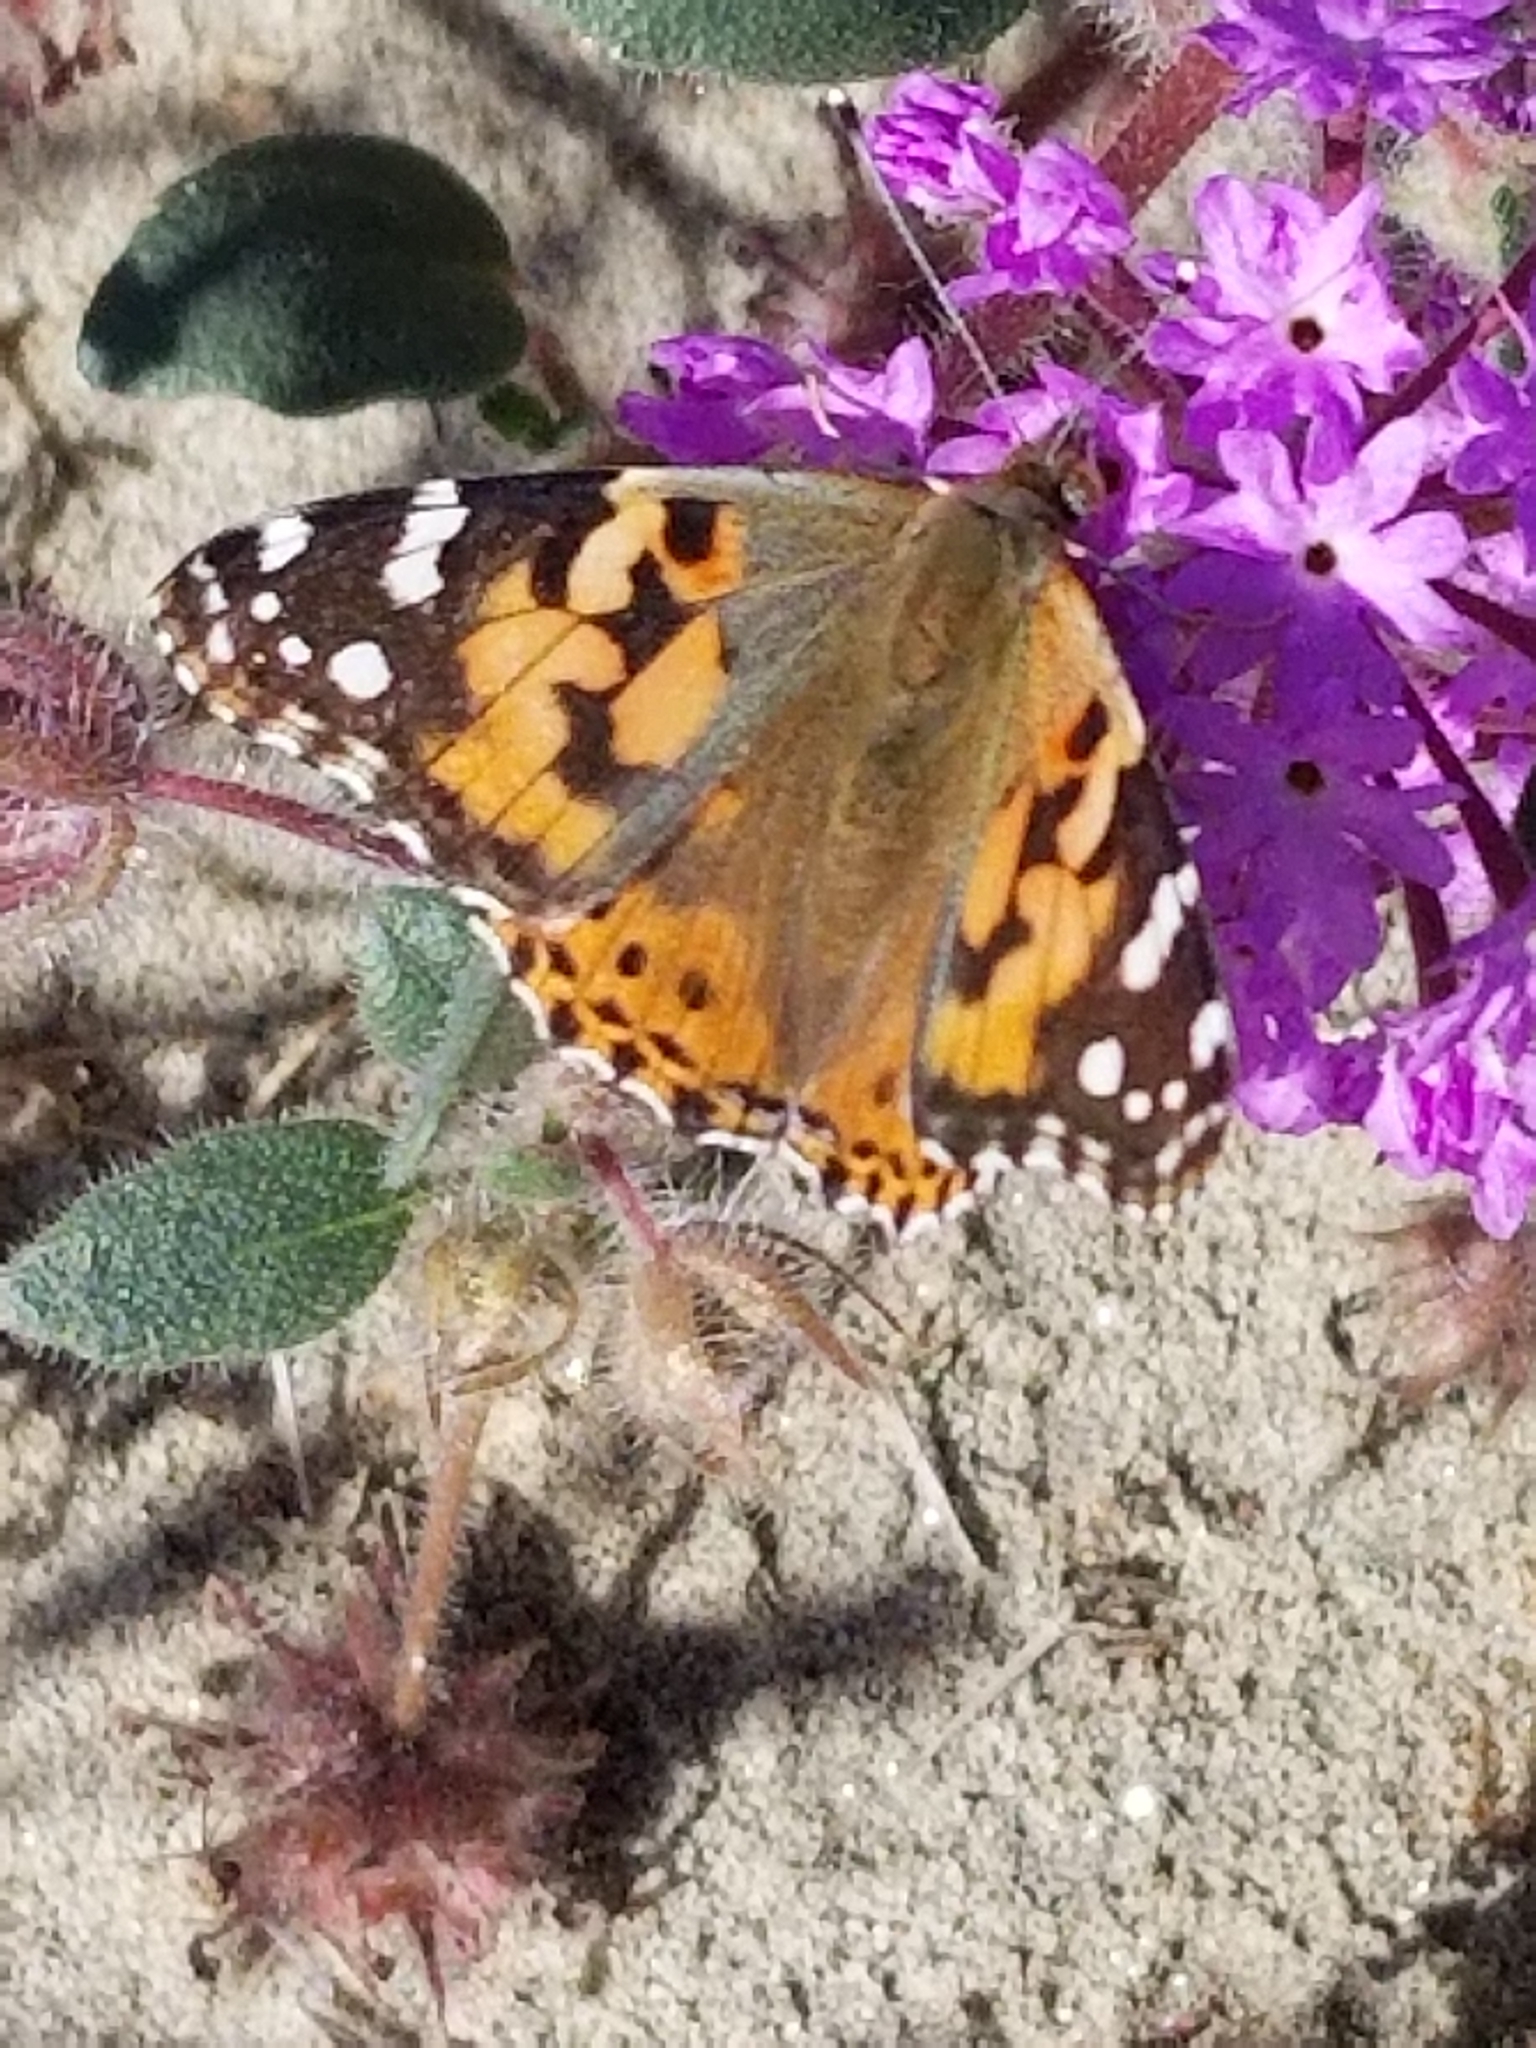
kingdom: Animalia
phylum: Arthropoda
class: Insecta
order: Lepidoptera
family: Nymphalidae
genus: Vanessa
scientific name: Vanessa cardui
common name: Painted lady
